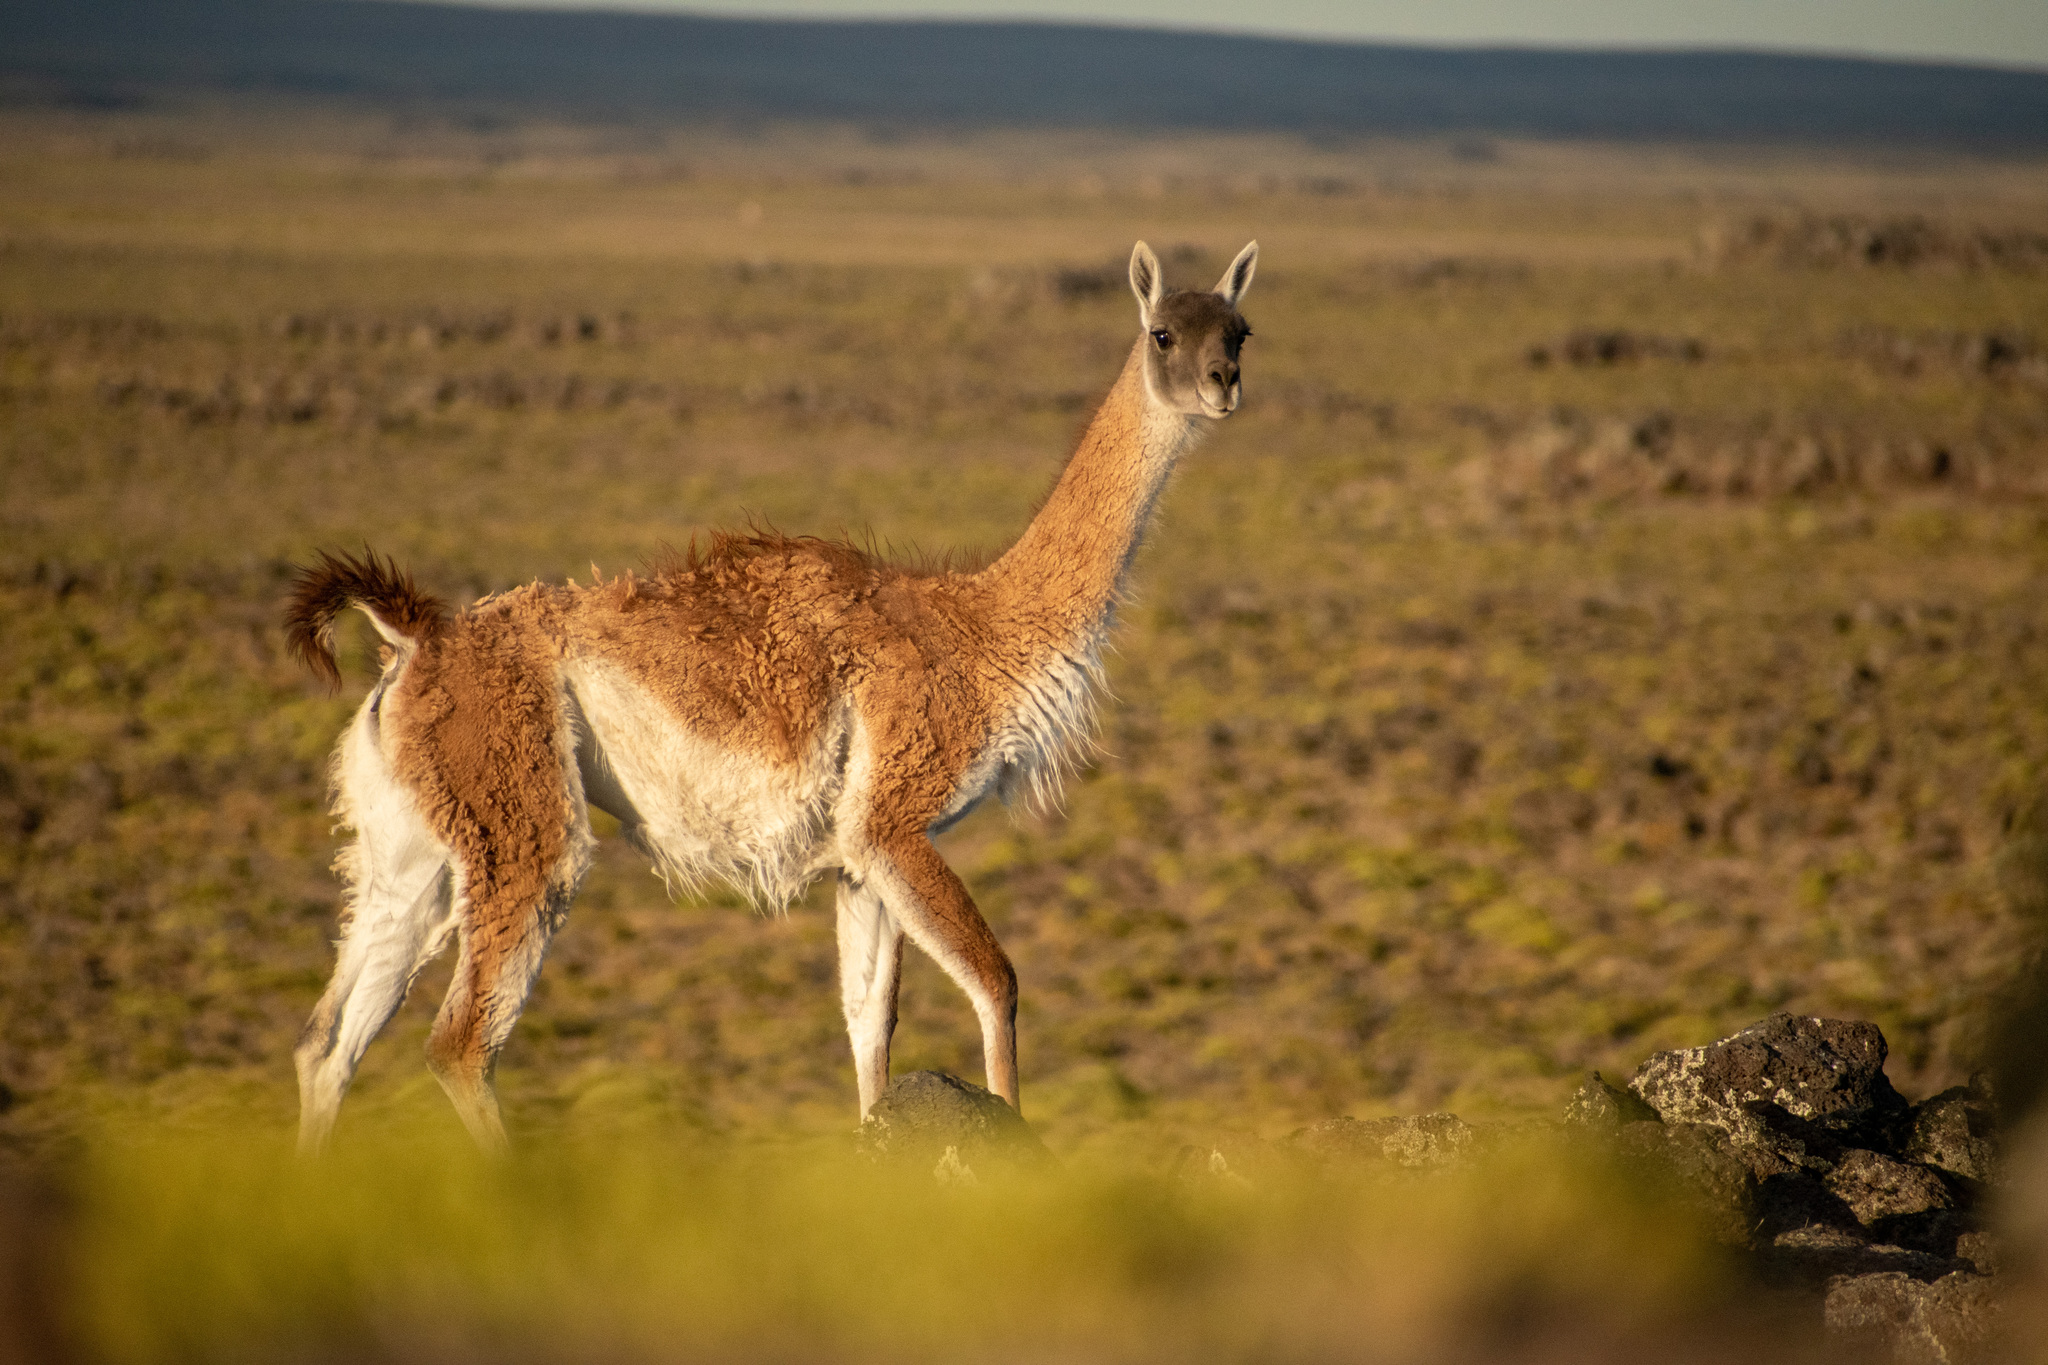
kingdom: Animalia
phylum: Chordata
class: Mammalia
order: Artiodactyla
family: Camelidae
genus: Lama
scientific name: Lama glama
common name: Llama
